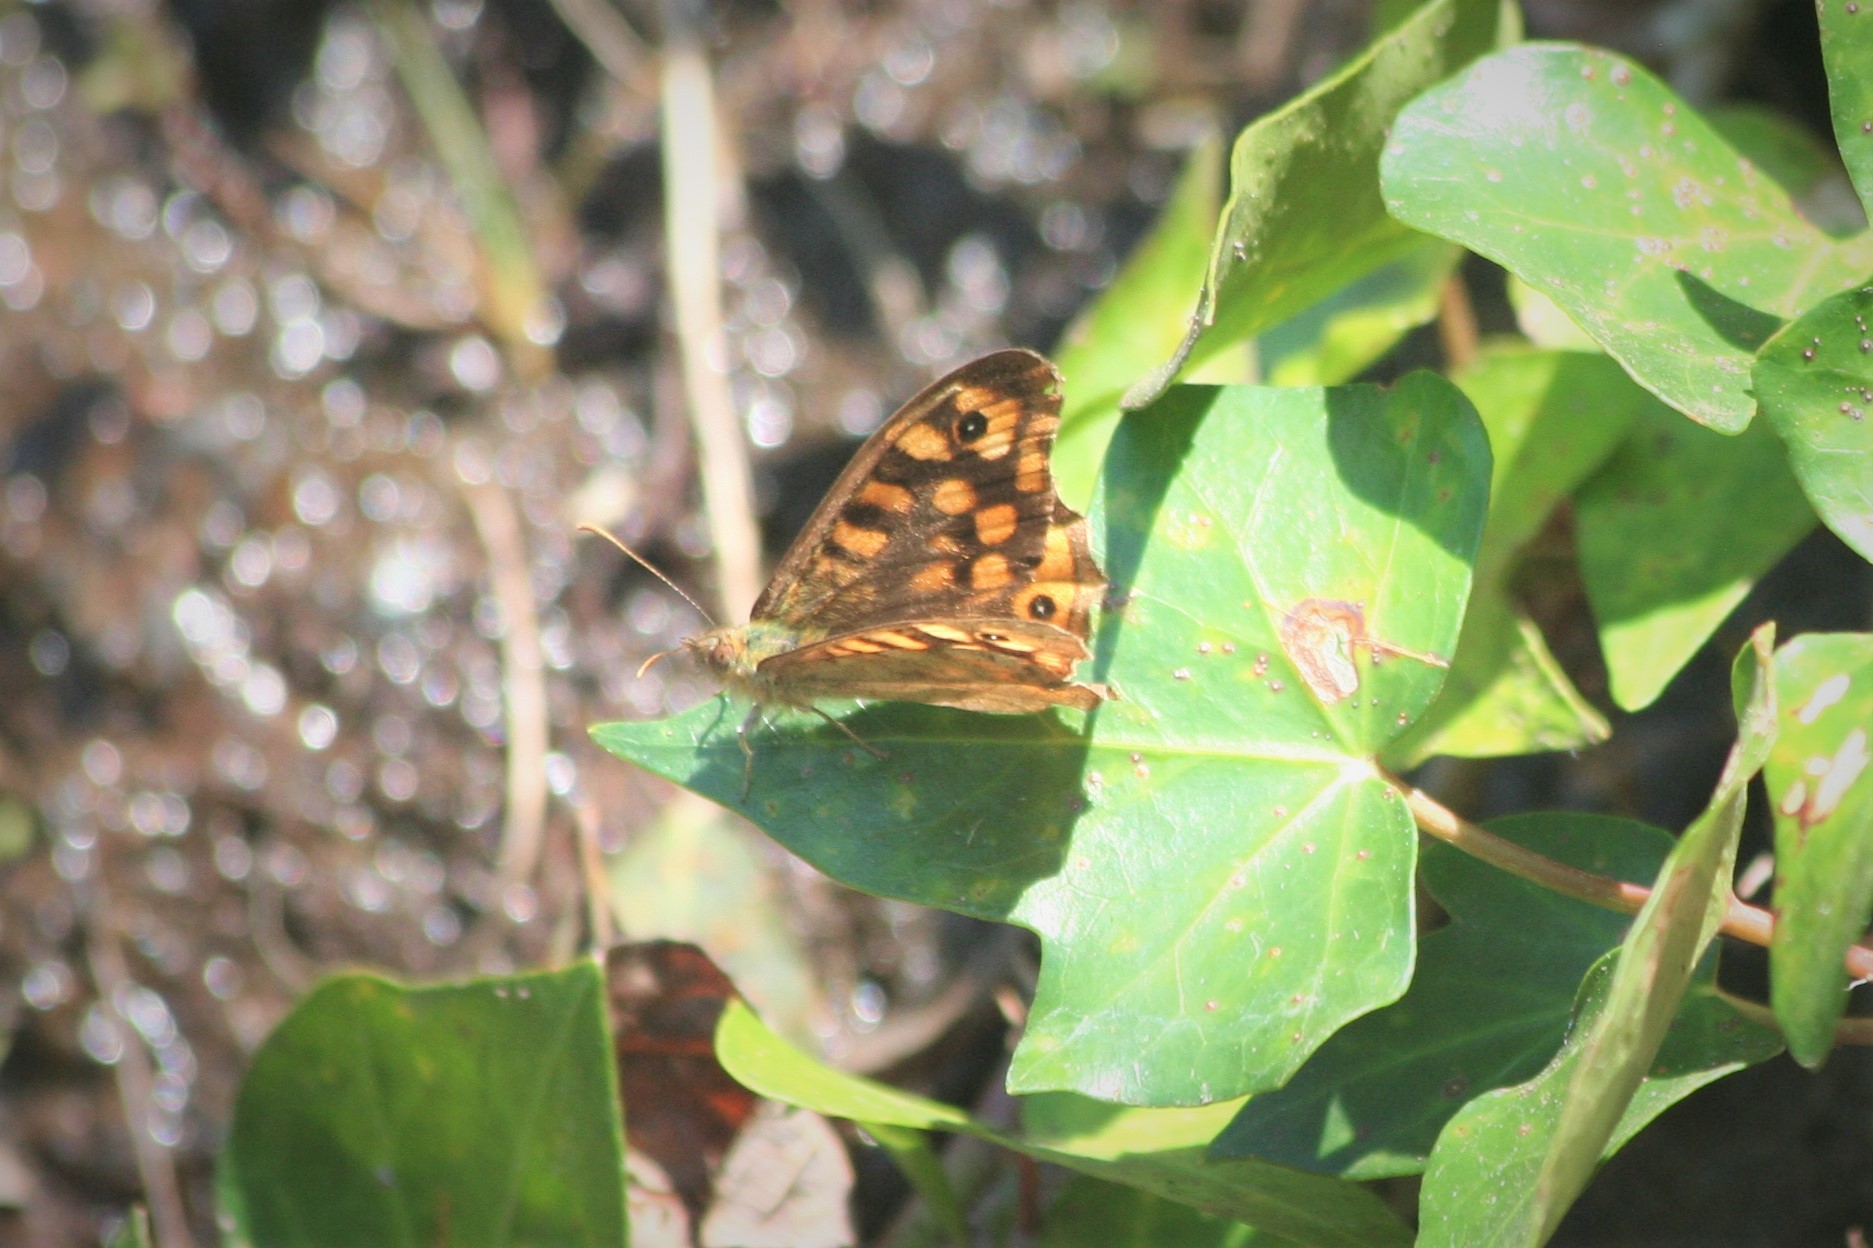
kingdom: Animalia
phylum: Arthropoda
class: Insecta
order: Lepidoptera
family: Nymphalidae
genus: Pararge
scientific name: Pararge aegeria
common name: Speckled wood
